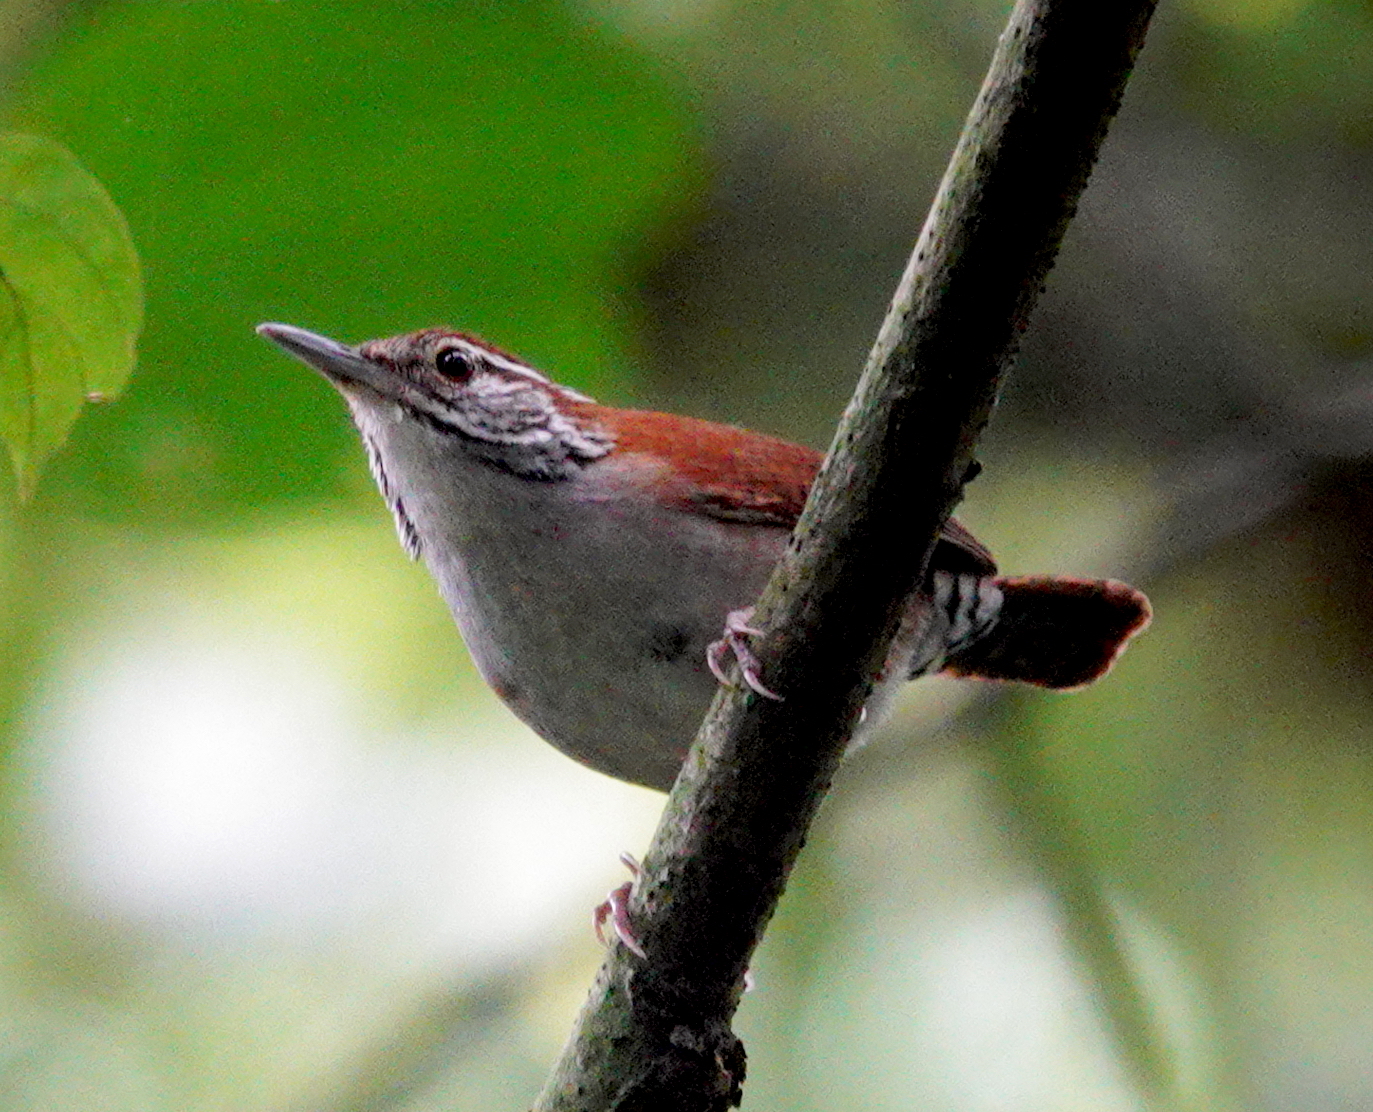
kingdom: Animalia
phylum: Chordata
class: Aves
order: Passeriformes
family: Troglodytidae
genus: Thryophilus
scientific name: Thryophilus rufalbus
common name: Rufous-and-white wren
